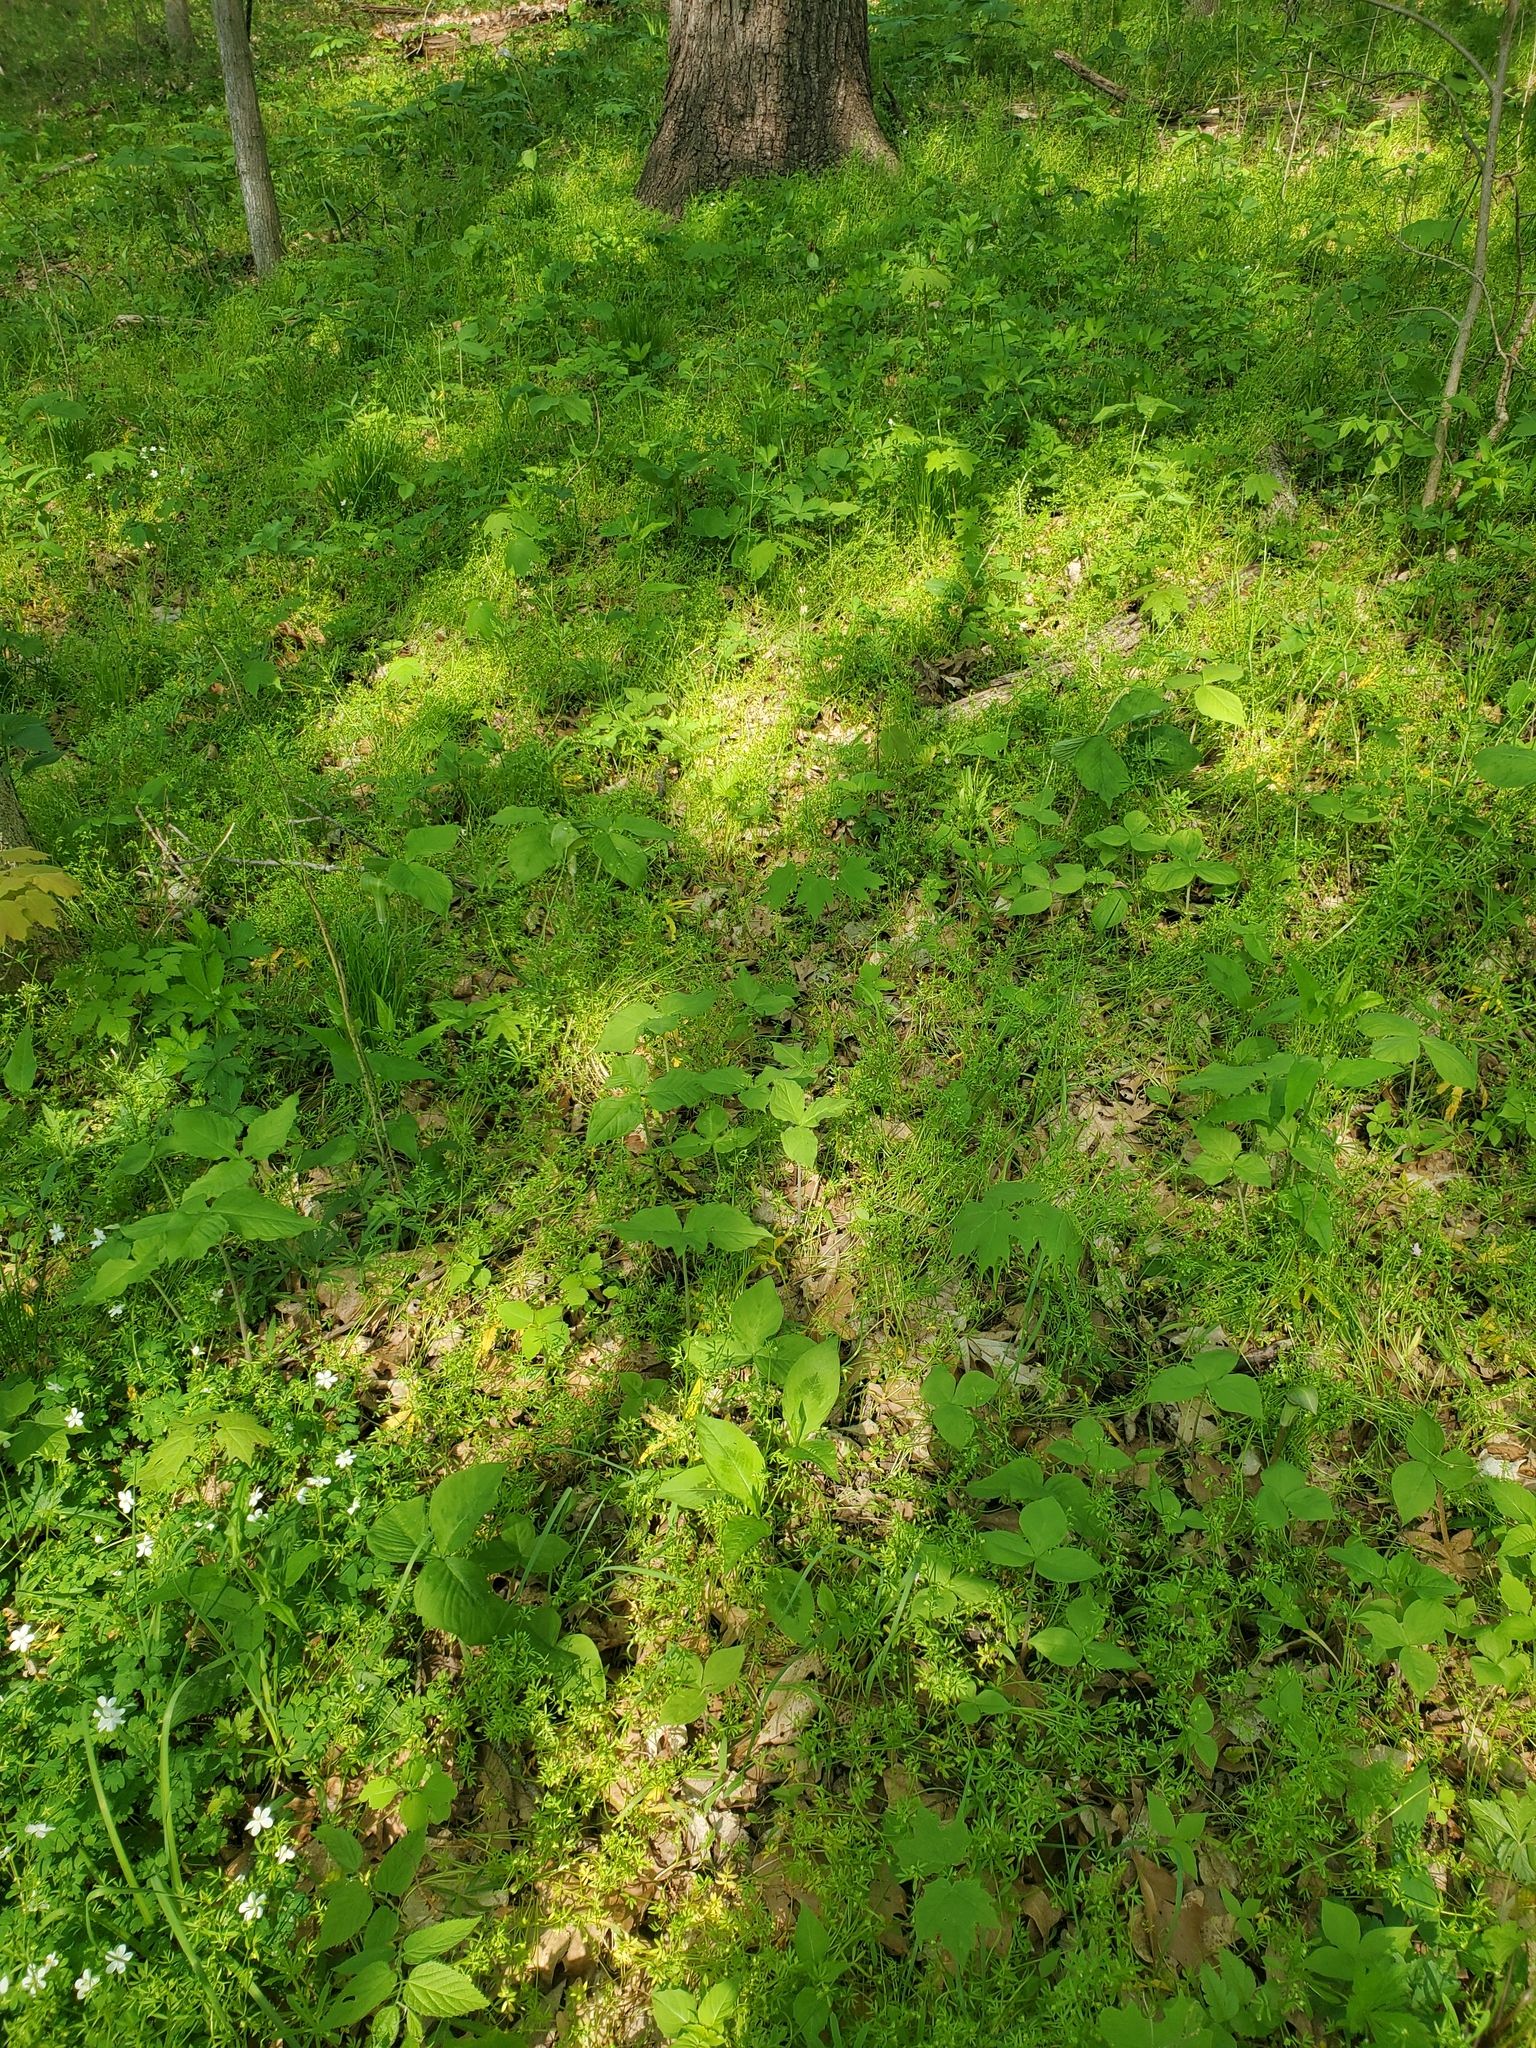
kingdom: Plantae
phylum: Tracheophyta
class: Magnoliopsida
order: Brassicales
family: Limnanthaceae
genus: Floerkea
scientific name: Floerkea proserpinacoides
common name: False mermaid
